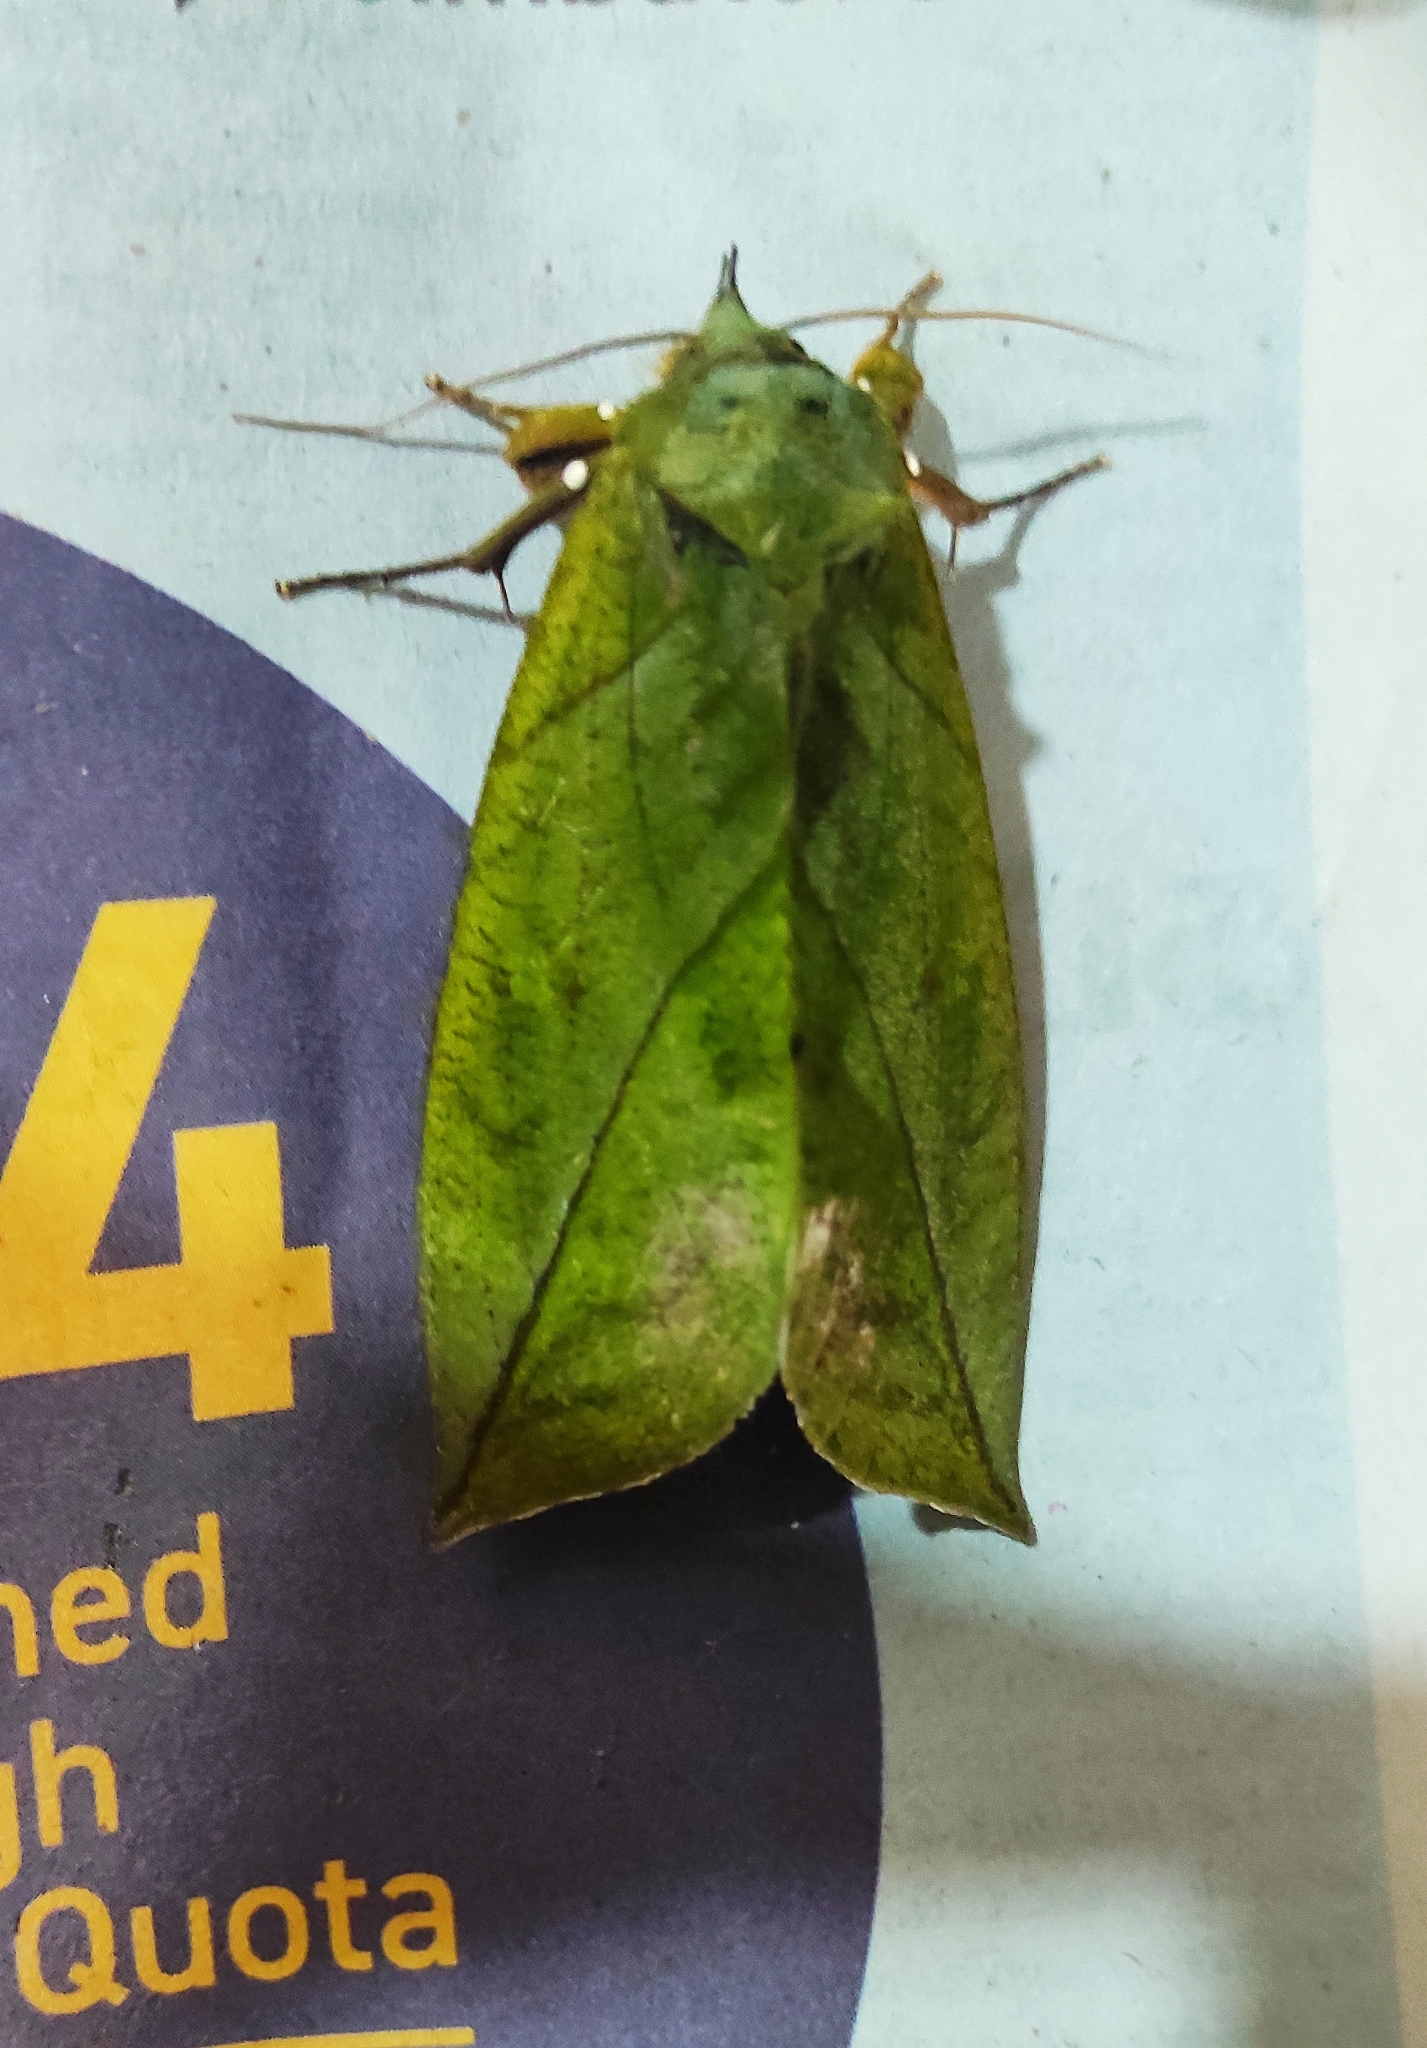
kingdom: Animalia
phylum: Arthropoda
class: Insecta
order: Lepidoptera
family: Erebidae
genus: Eudocima
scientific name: Eudocima sikhimensis
